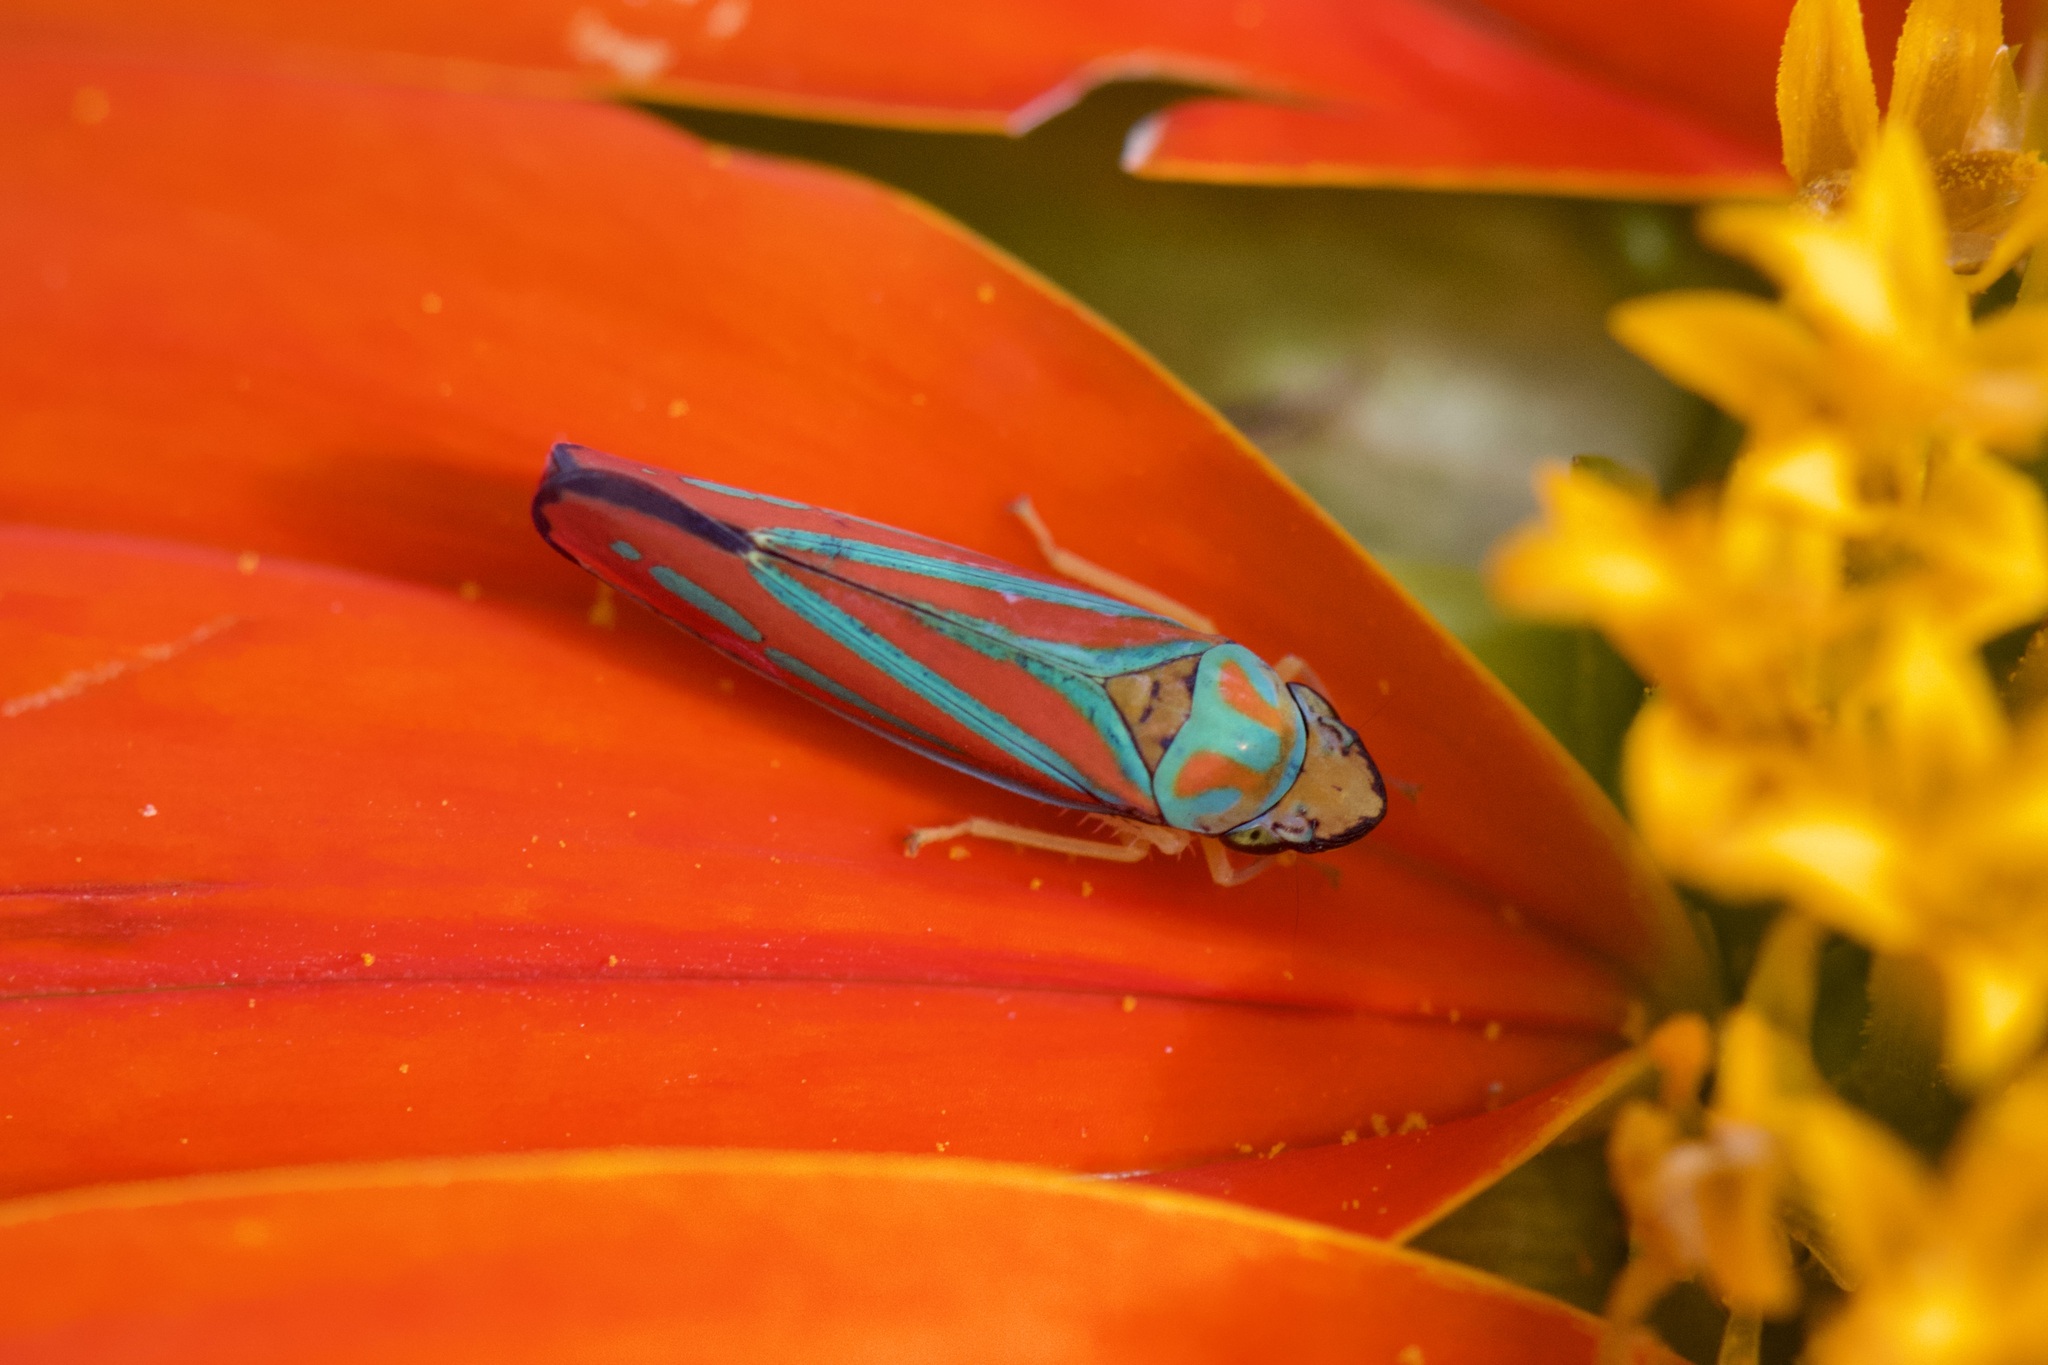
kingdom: Animalia
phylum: Arthropoda
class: Insecta
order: Hemiptera
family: Cicadellidae
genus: Graphocephala
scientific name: Graphocephala coccinea
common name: Candy-striped leafhopper
